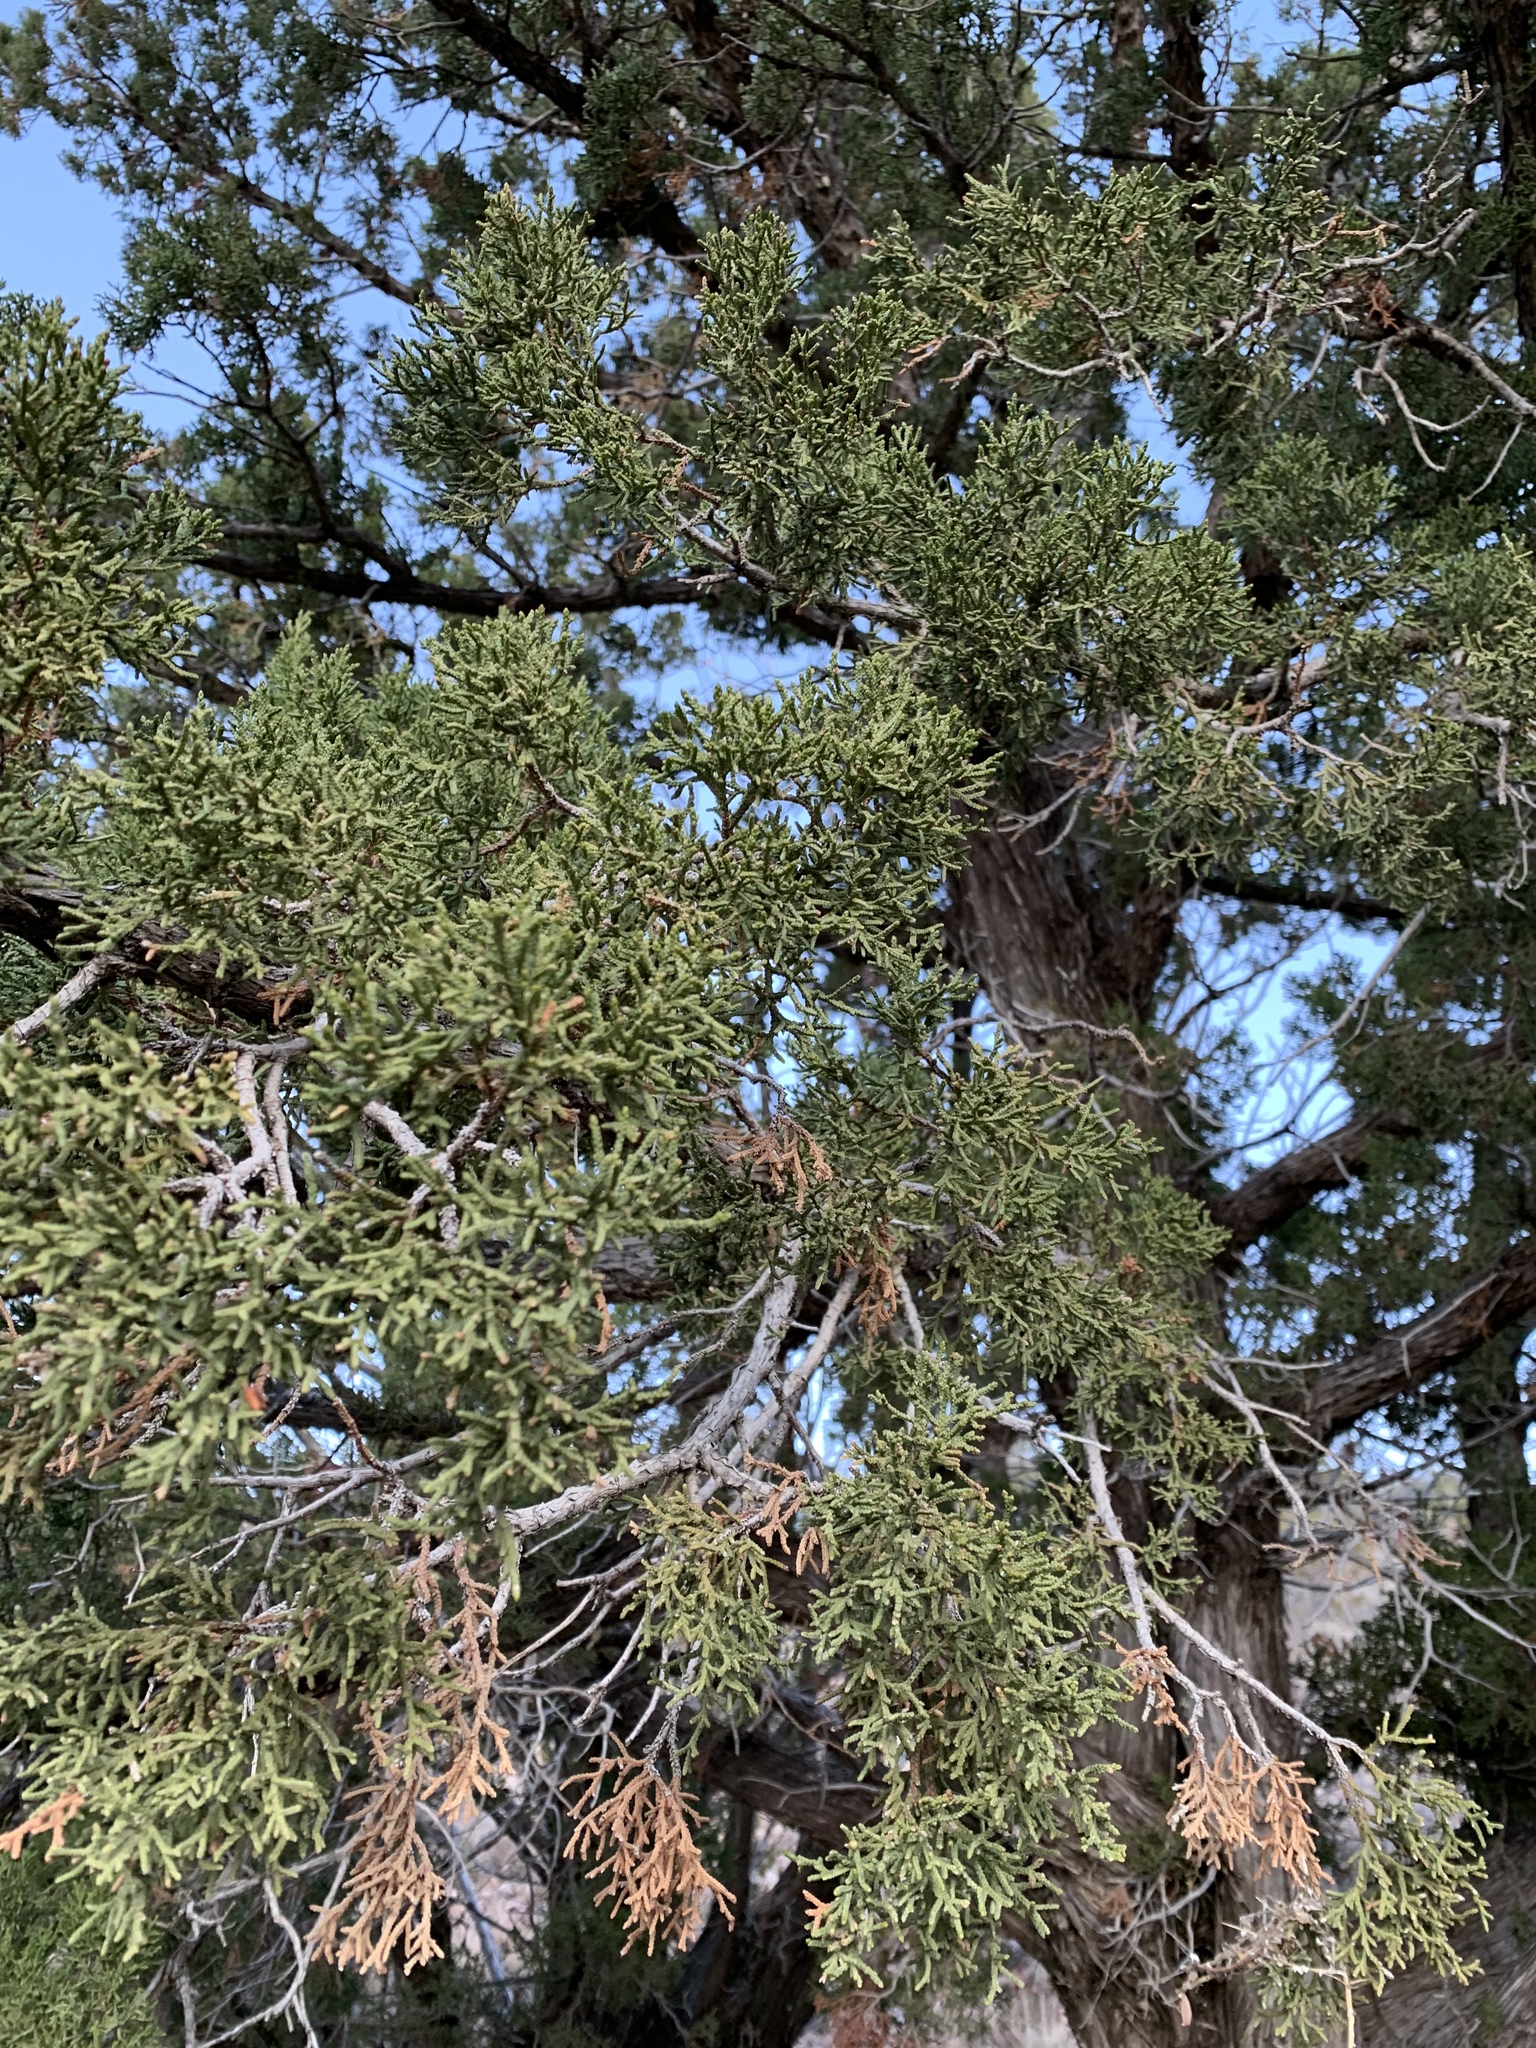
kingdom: Plantae
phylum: Tracheophyta
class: Pinopsida
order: Pinales
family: Cupressaceae
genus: Juniperus
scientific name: Juniperus monosperma
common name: One-seed juniper
